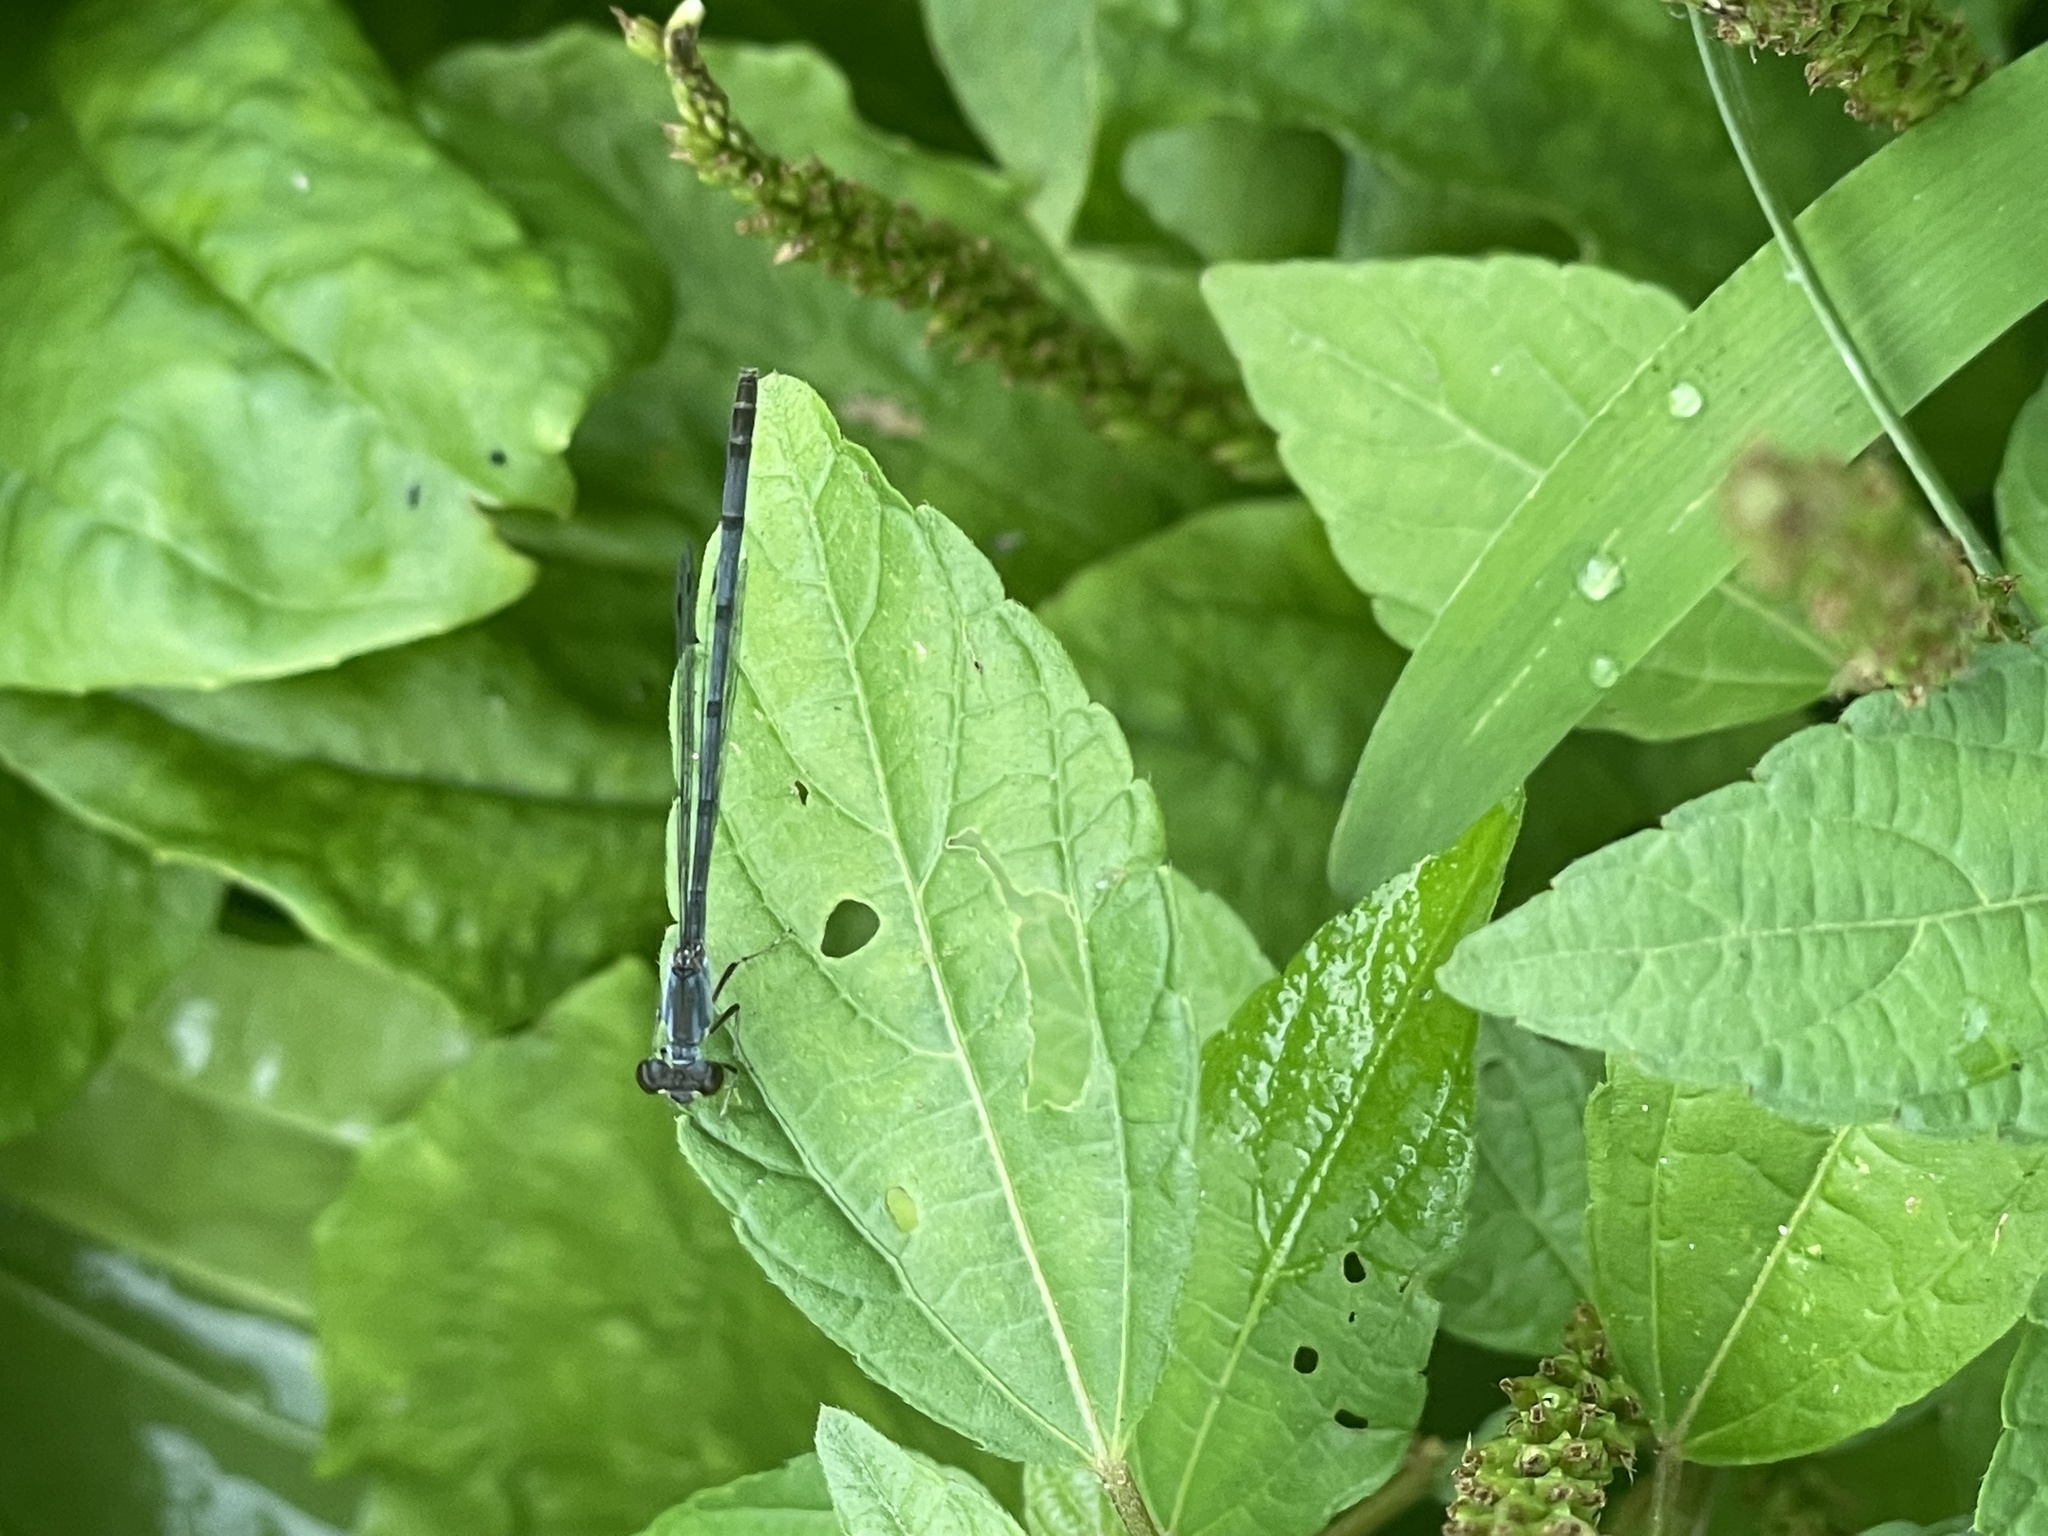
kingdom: Animalia
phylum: Arthropoda
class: Insecta
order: Odonata
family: Coenagrionidae
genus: Ischnura
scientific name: Ischnura posita
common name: Fragile forktail
